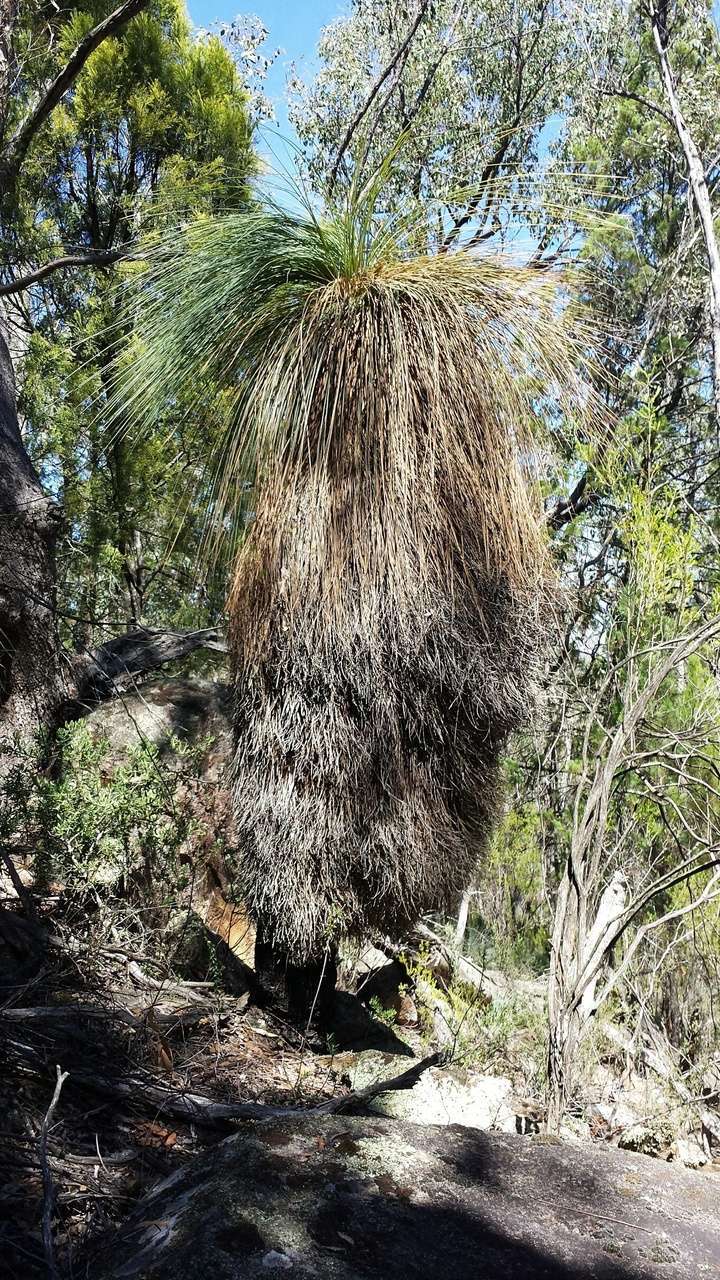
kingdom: Plantae
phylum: Tracheophyta
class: Liliopsida
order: Asparagales
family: Asphodelaceae
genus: Xanthorrhoea
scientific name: Xanthorrhoea glauca
